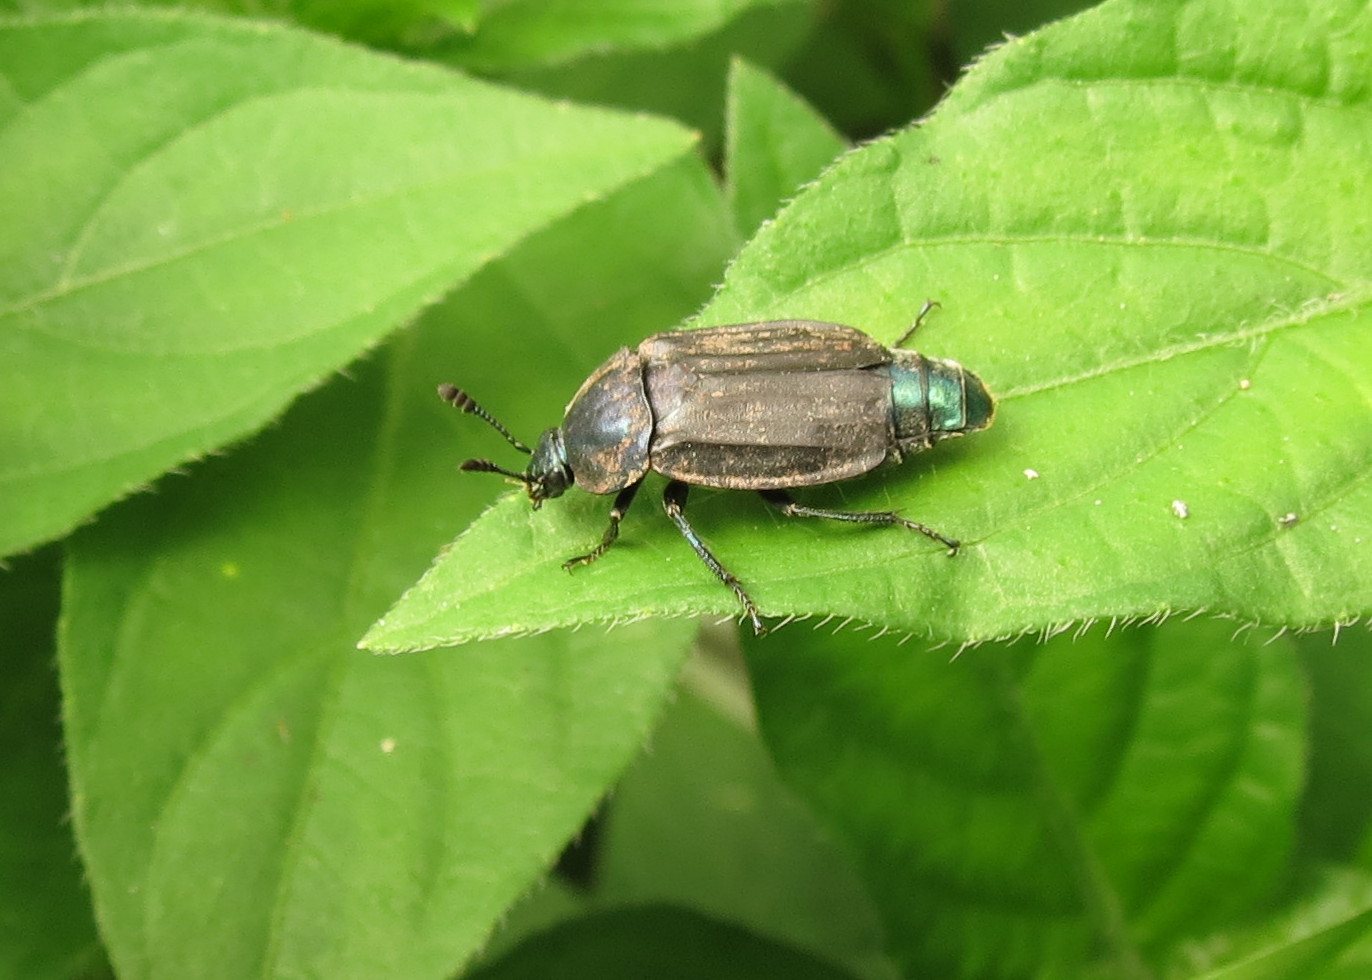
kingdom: Animalia
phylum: Arthropoda
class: Insecta
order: Coleoptera
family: Staphylinidae
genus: Thanatophilus
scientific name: Thanatophilus micans
